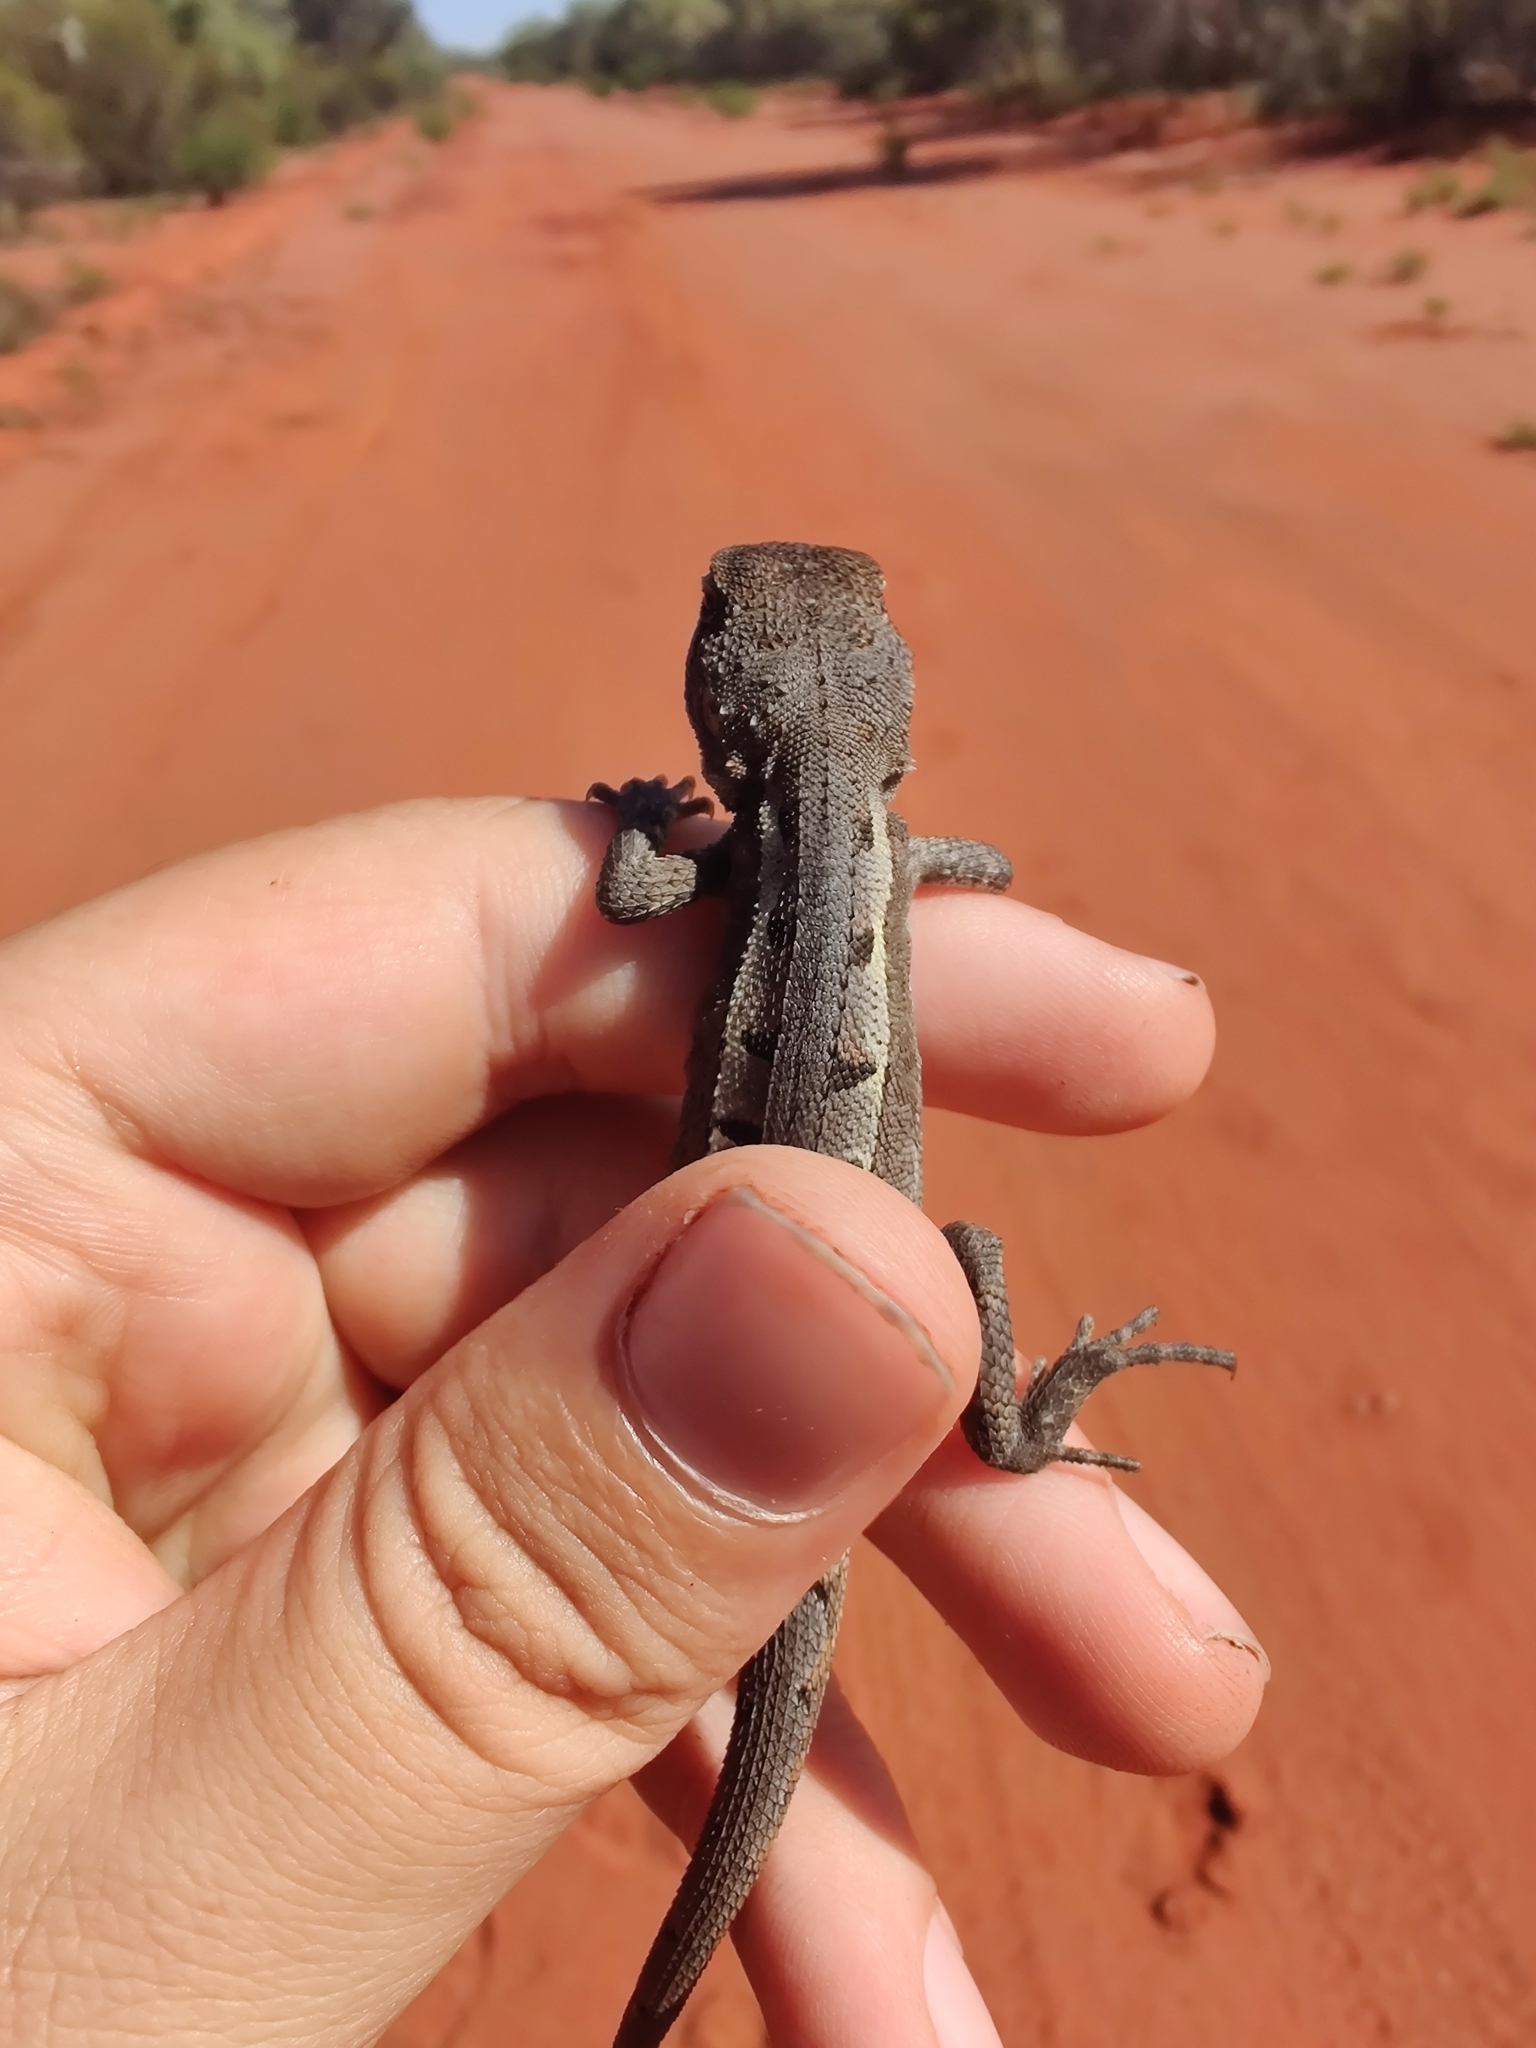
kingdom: Animalia
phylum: Chordata
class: Squamata
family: Agamidae
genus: Diporiphora
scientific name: Diporiphora nobbi
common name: Nobbi
